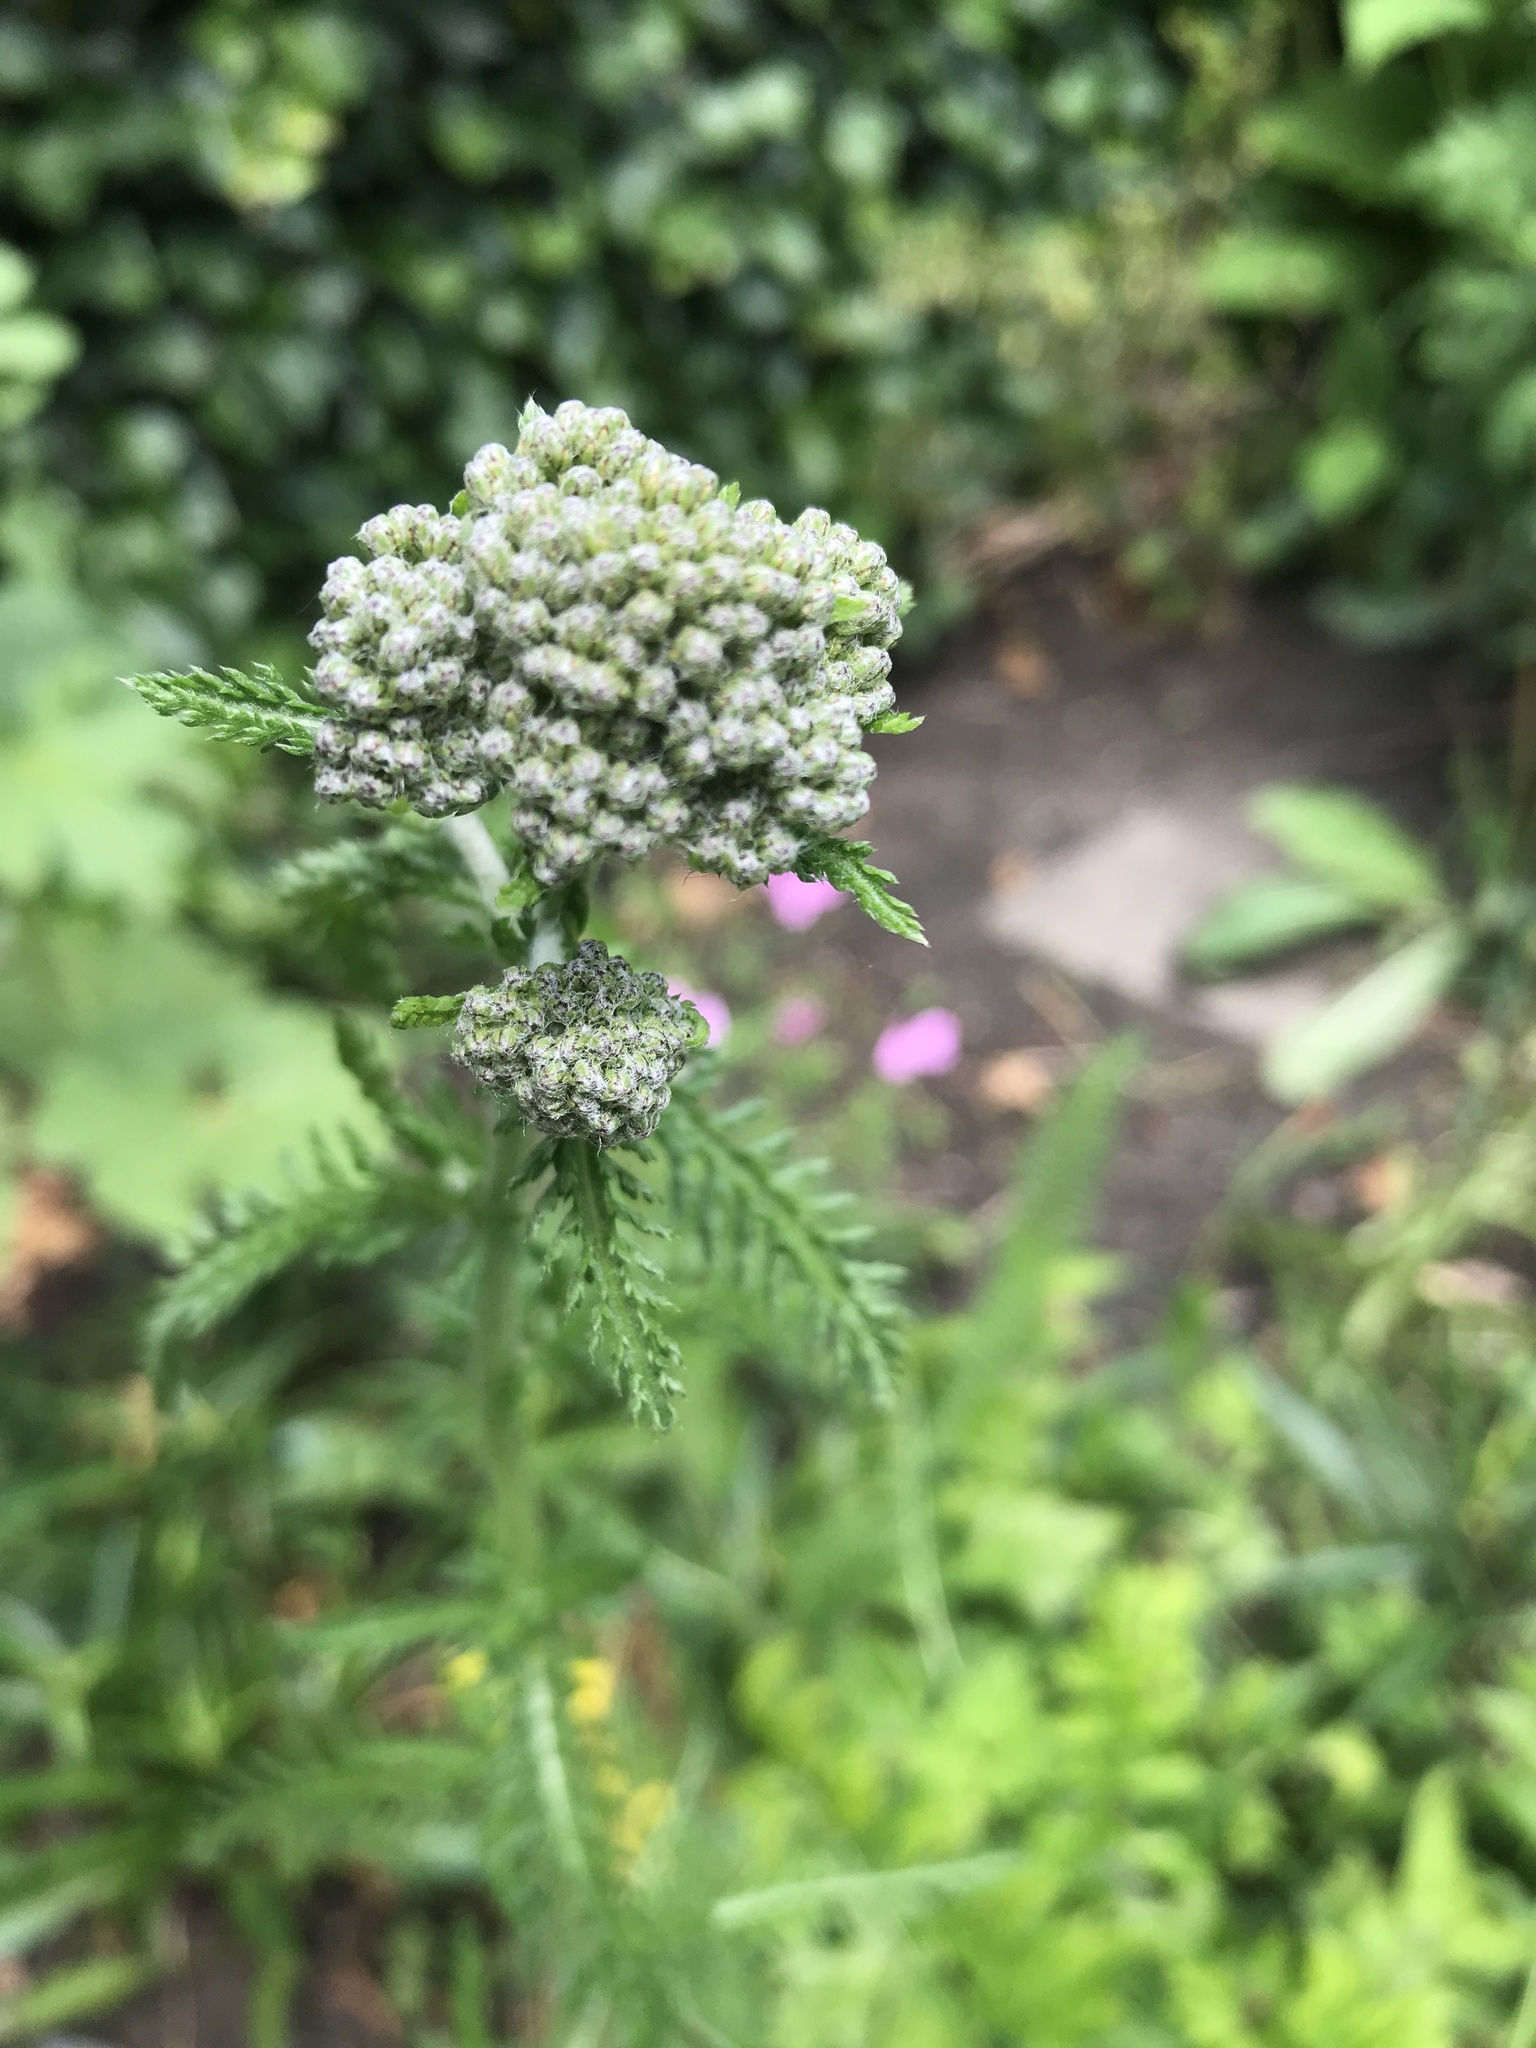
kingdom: Plantae
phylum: Tracheophyta
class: Magnoliopsida
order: Asterales
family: Asteraceae
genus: Achillea
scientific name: Achillea millefolium
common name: Yarrow
